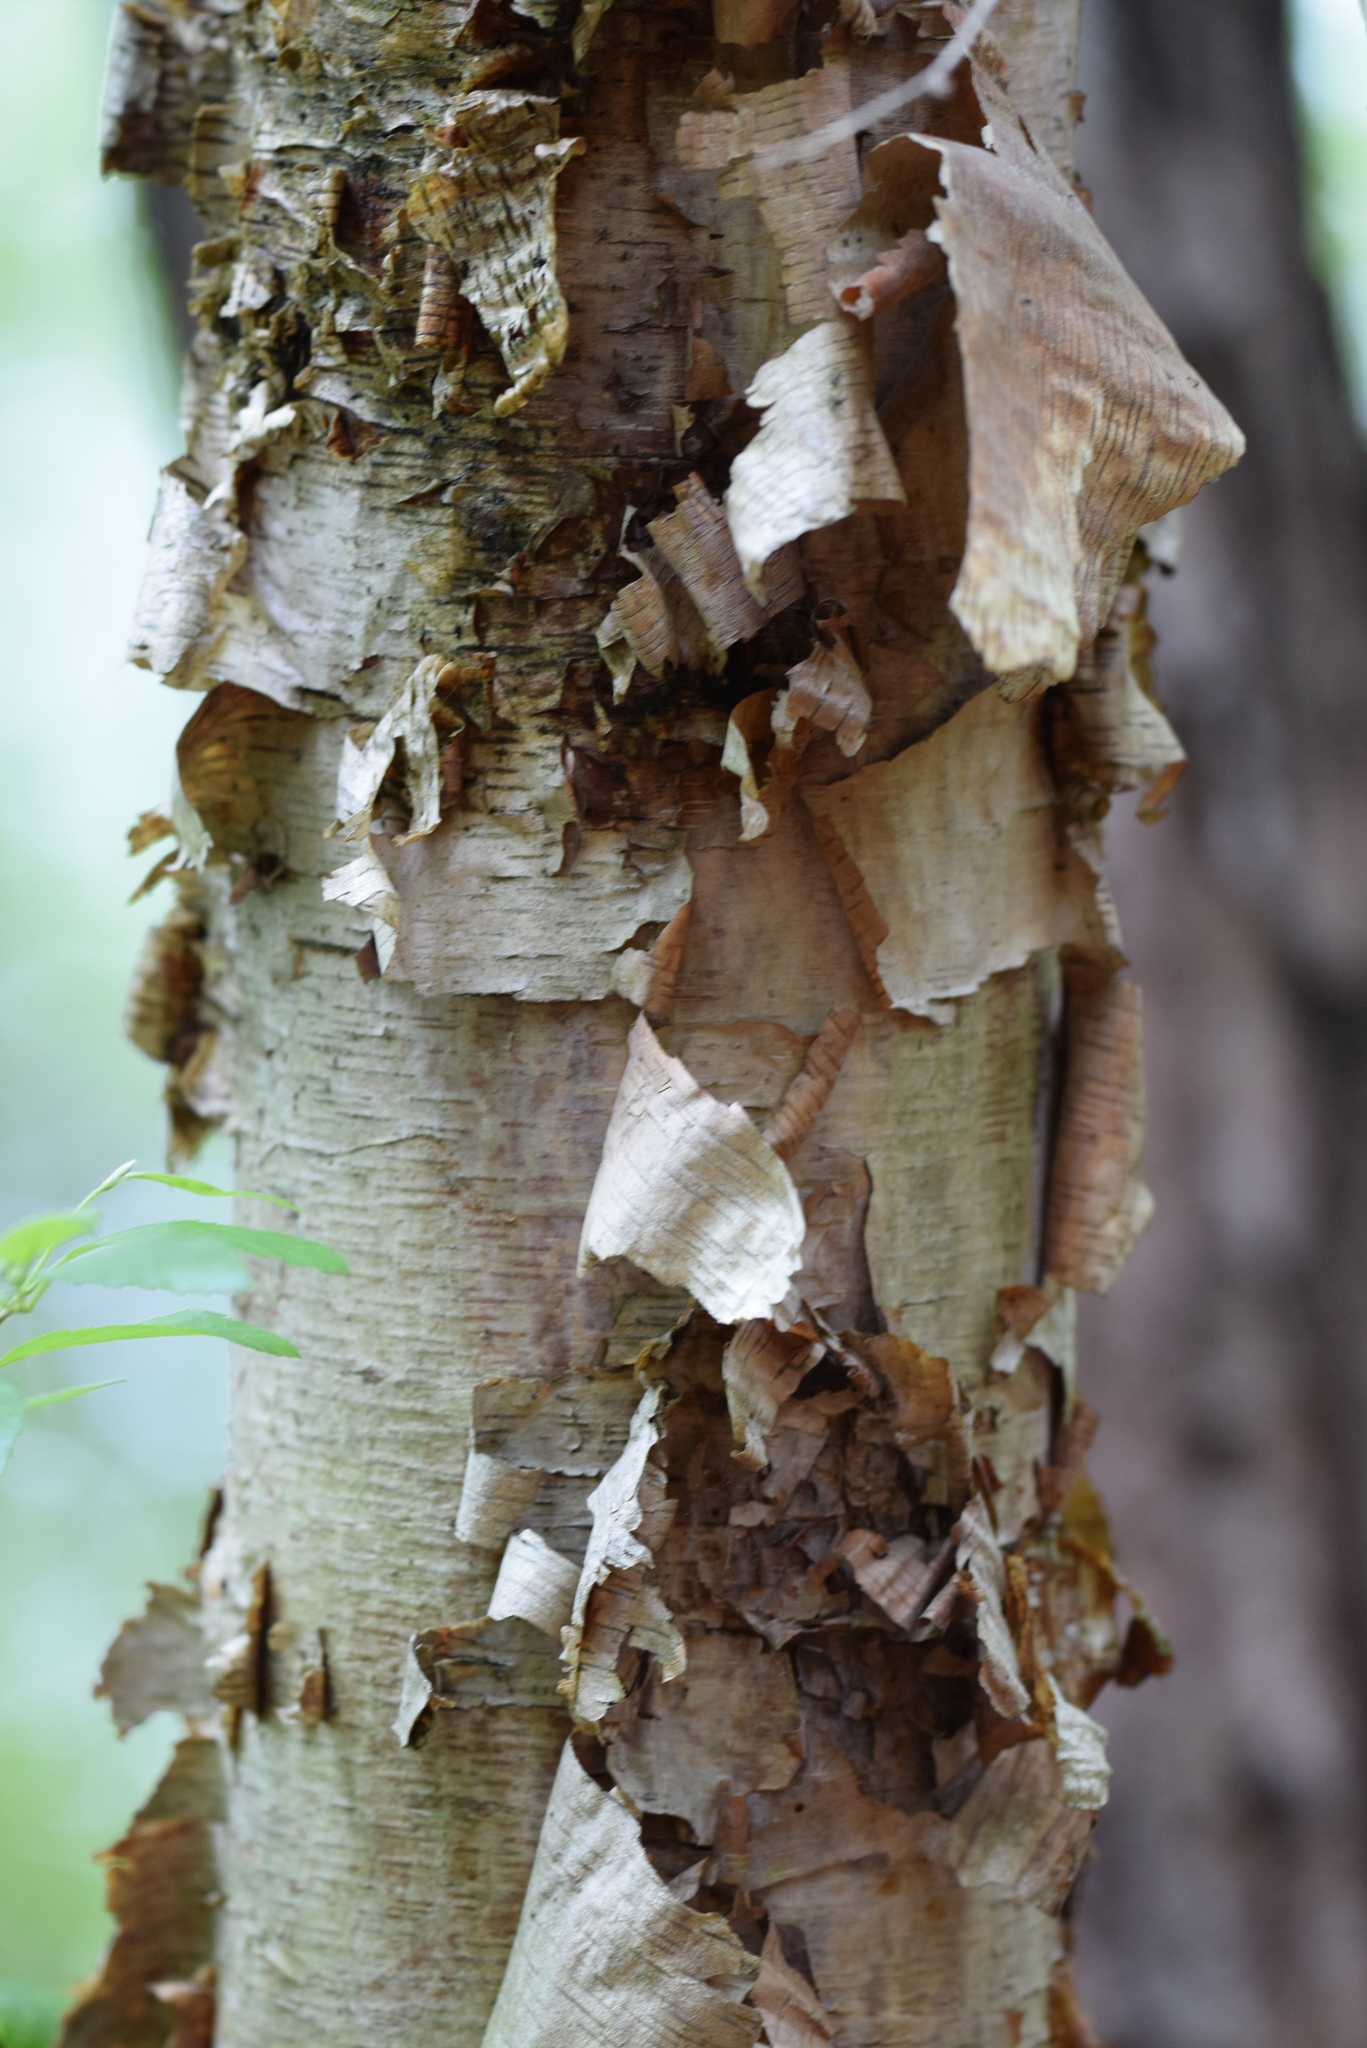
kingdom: Plantae
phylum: Tracheophyta
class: Magnoliopsida
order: Fagales
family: Betulaceae
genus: Betula
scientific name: Betula nigra
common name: Black birch
